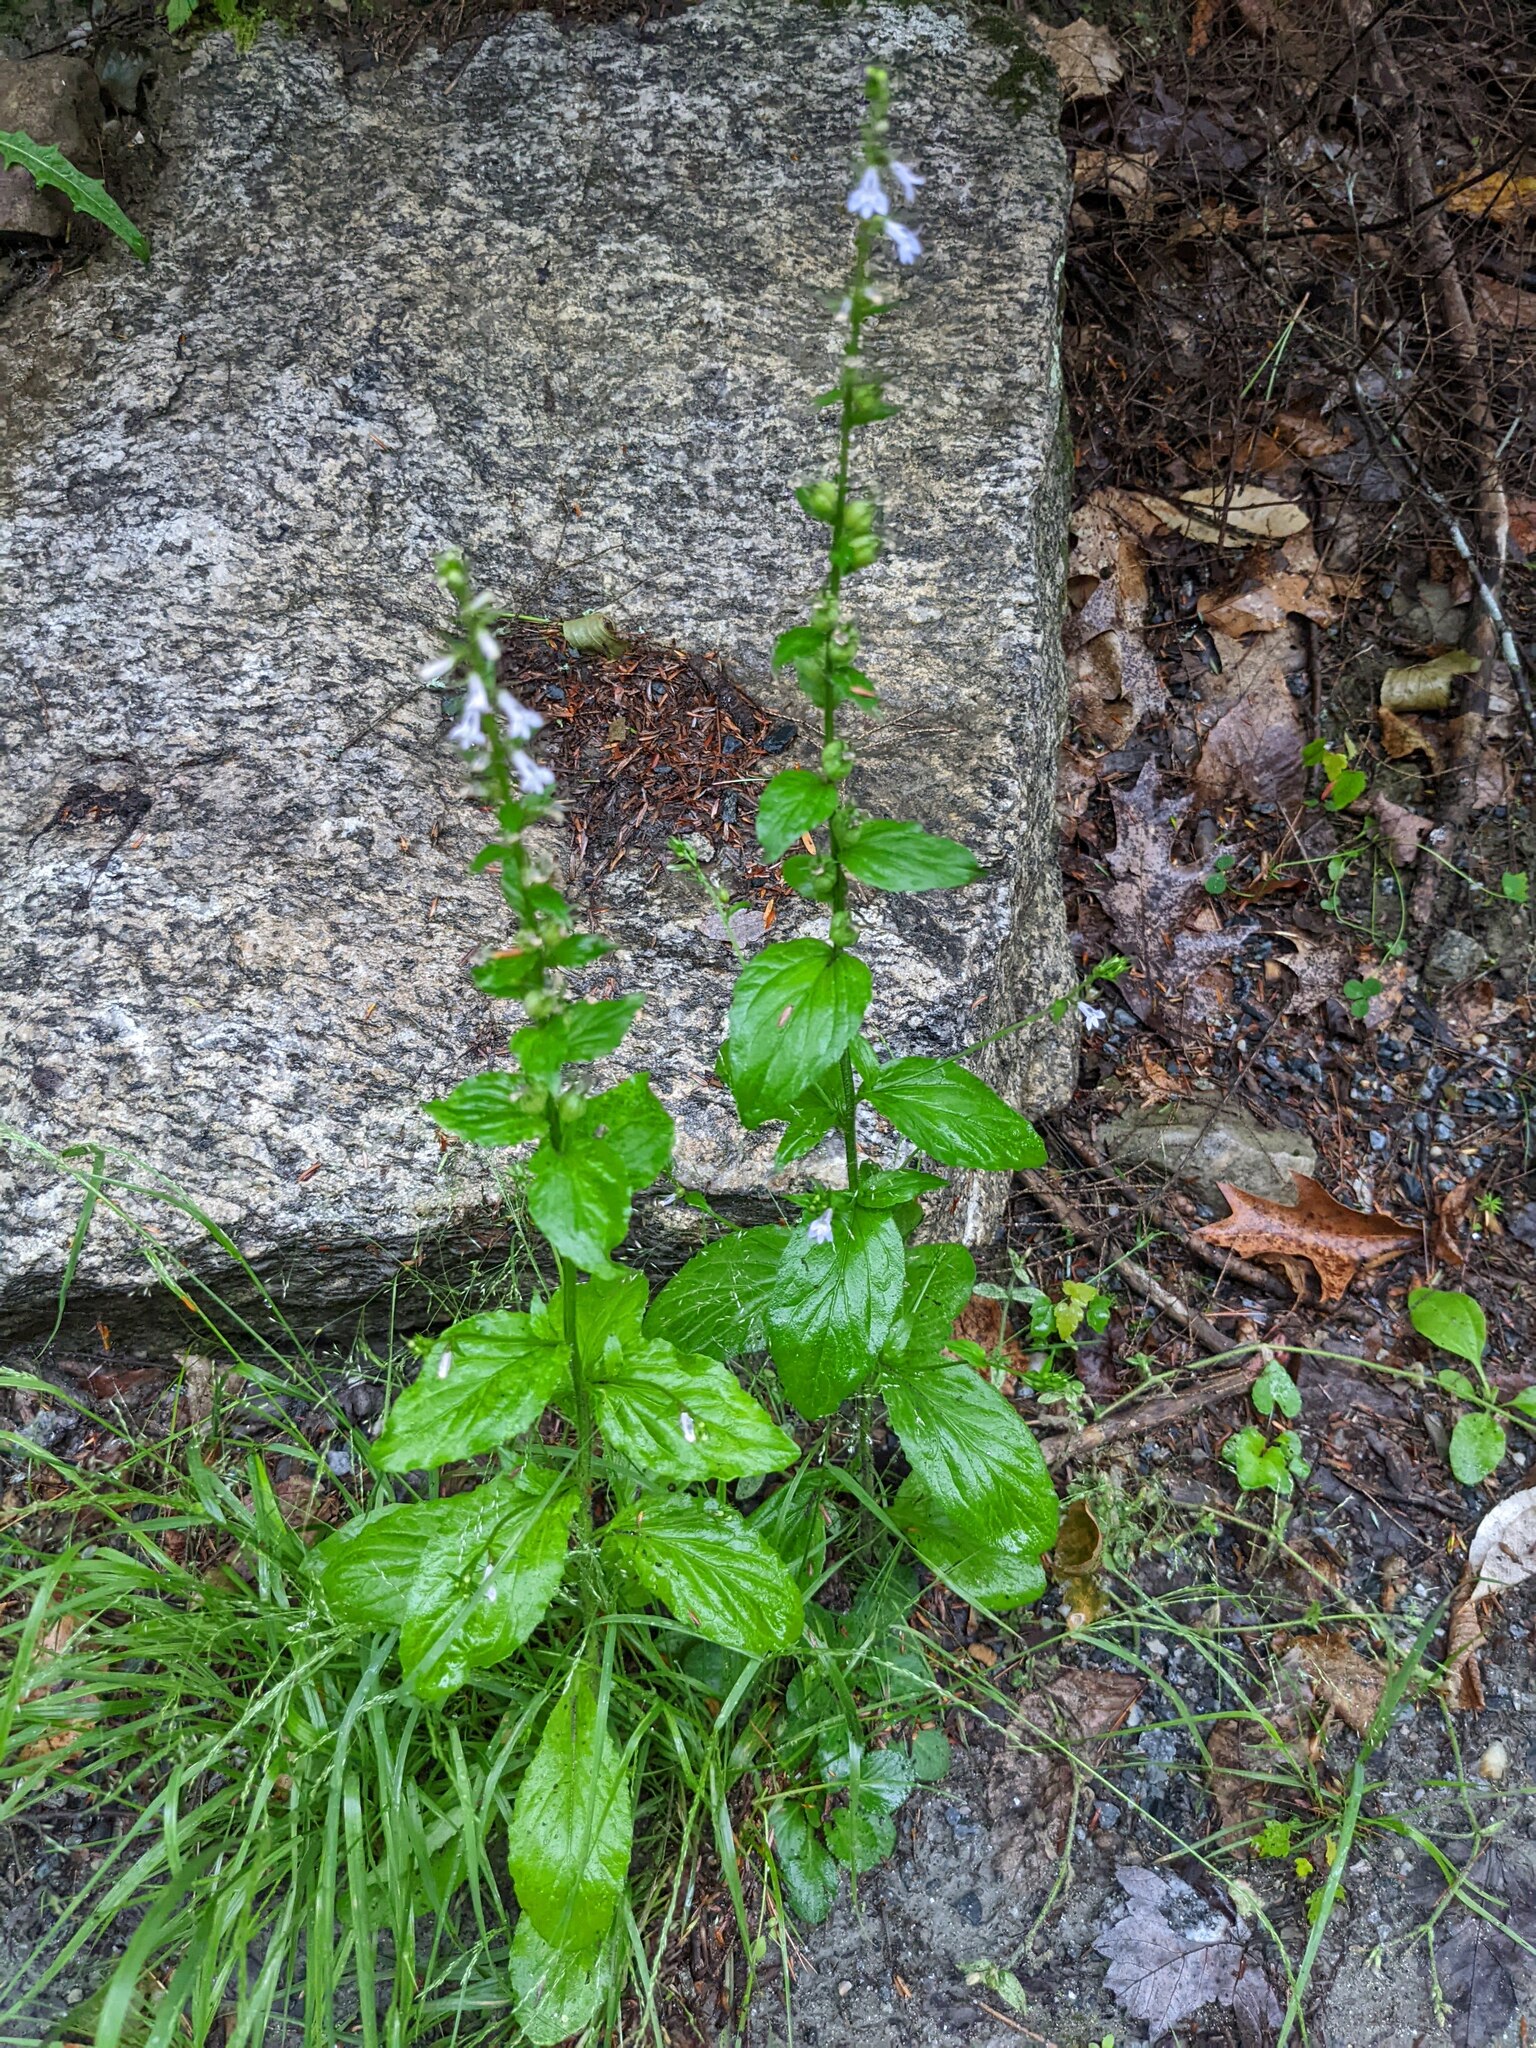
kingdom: Plantae
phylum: Tracheophyta
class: Magnoliopsida
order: Asterales
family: Campanulaceae
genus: Lobelia
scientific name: Lobelia inflata
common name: Indian tobacco
